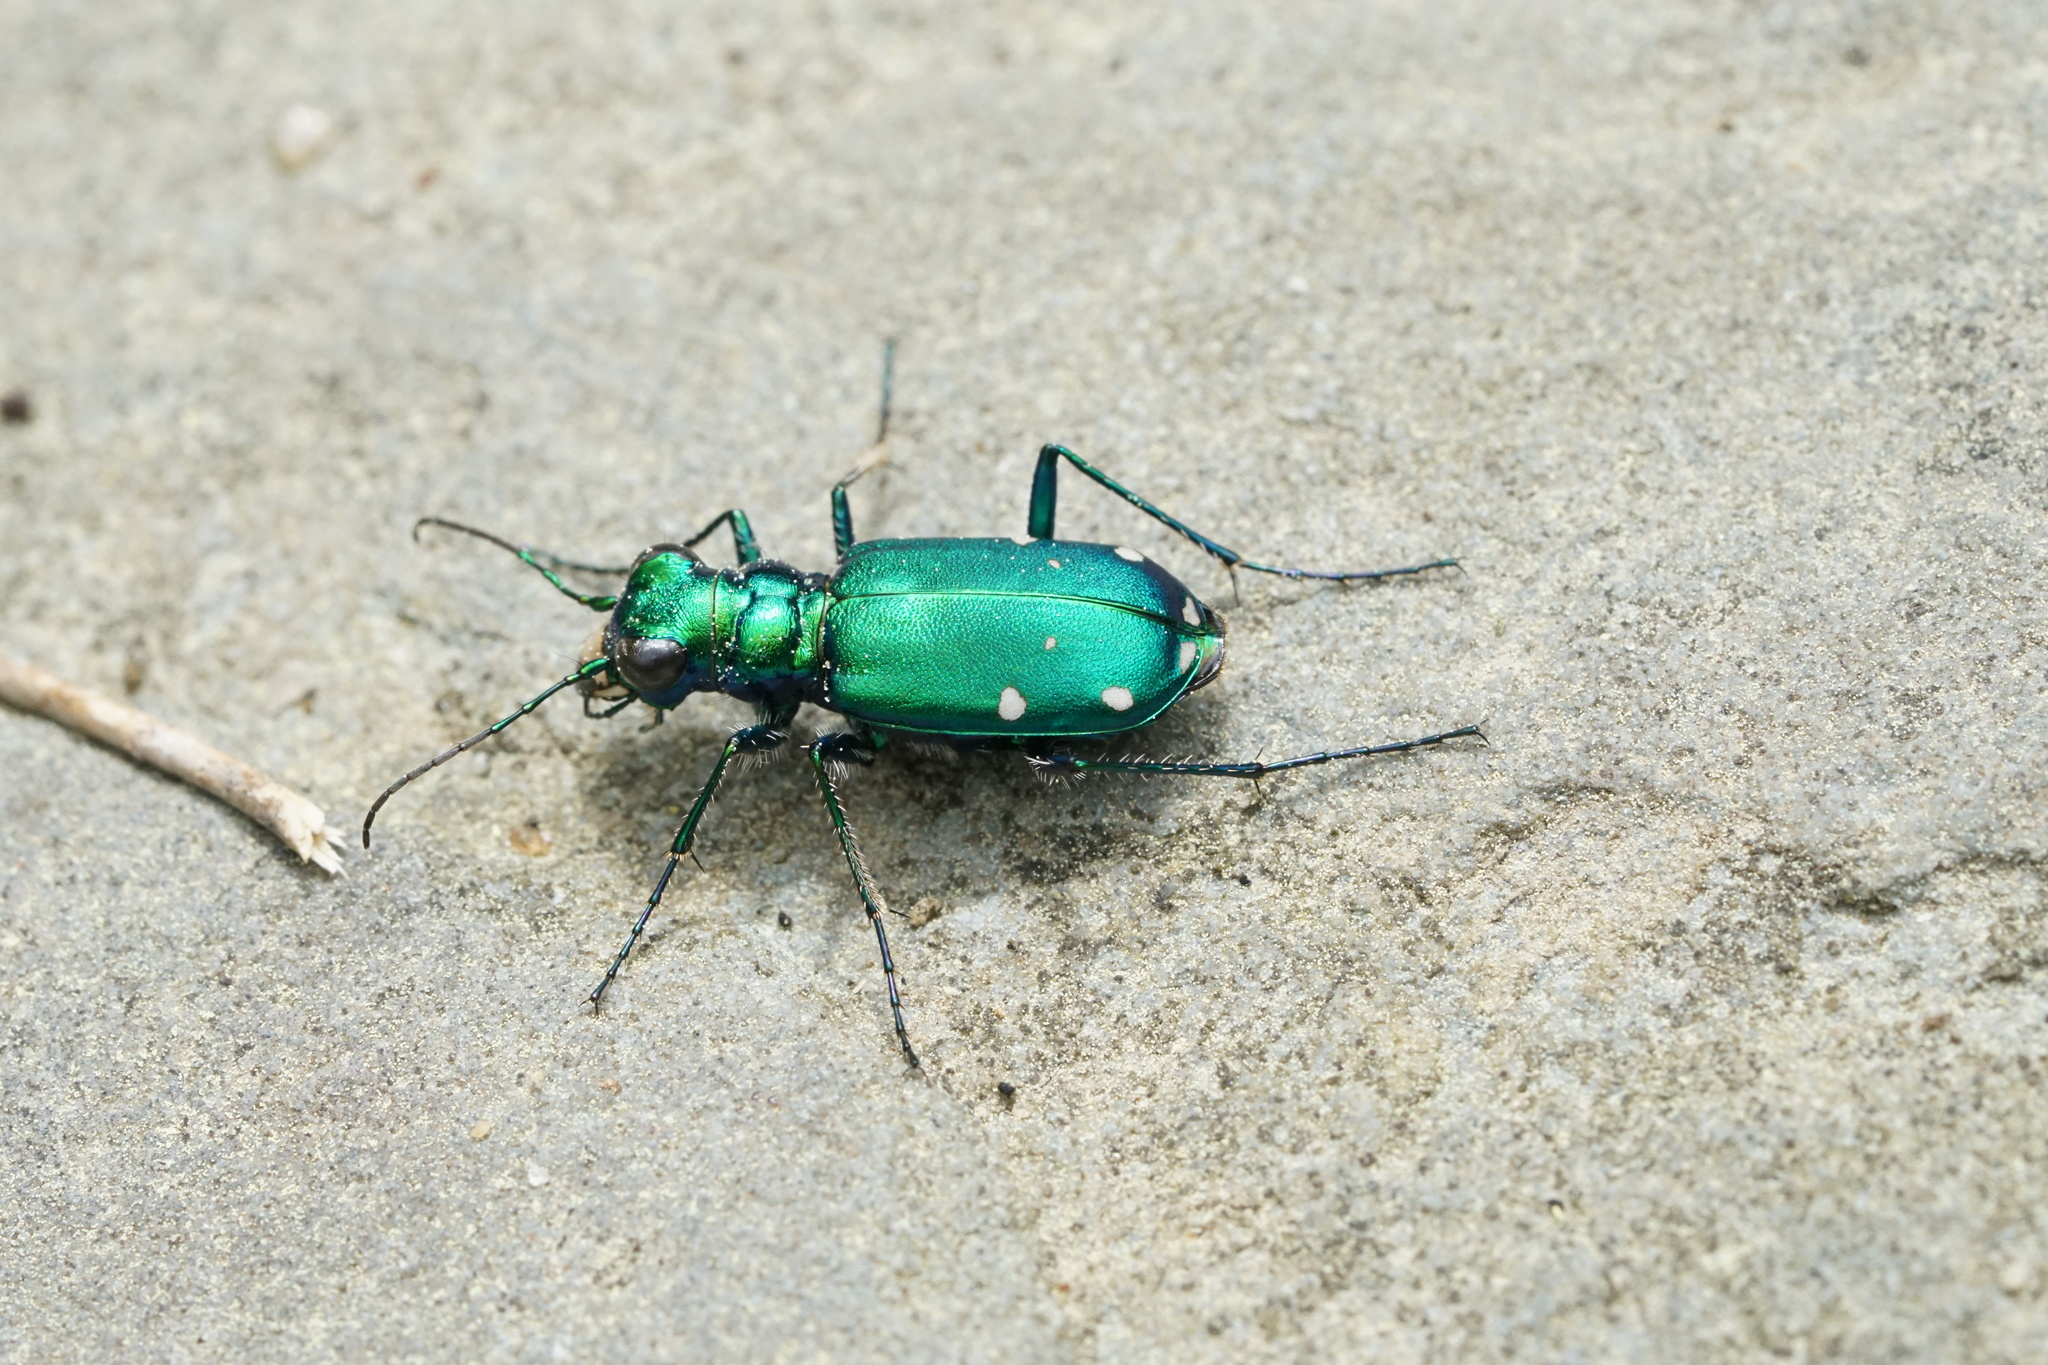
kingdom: Animalia
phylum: Arthropoda
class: Insecta
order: Coleoptera
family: Carabidae
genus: Cicindela
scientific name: Cicindela sexguttata
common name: Six-spotted tiger beetle
